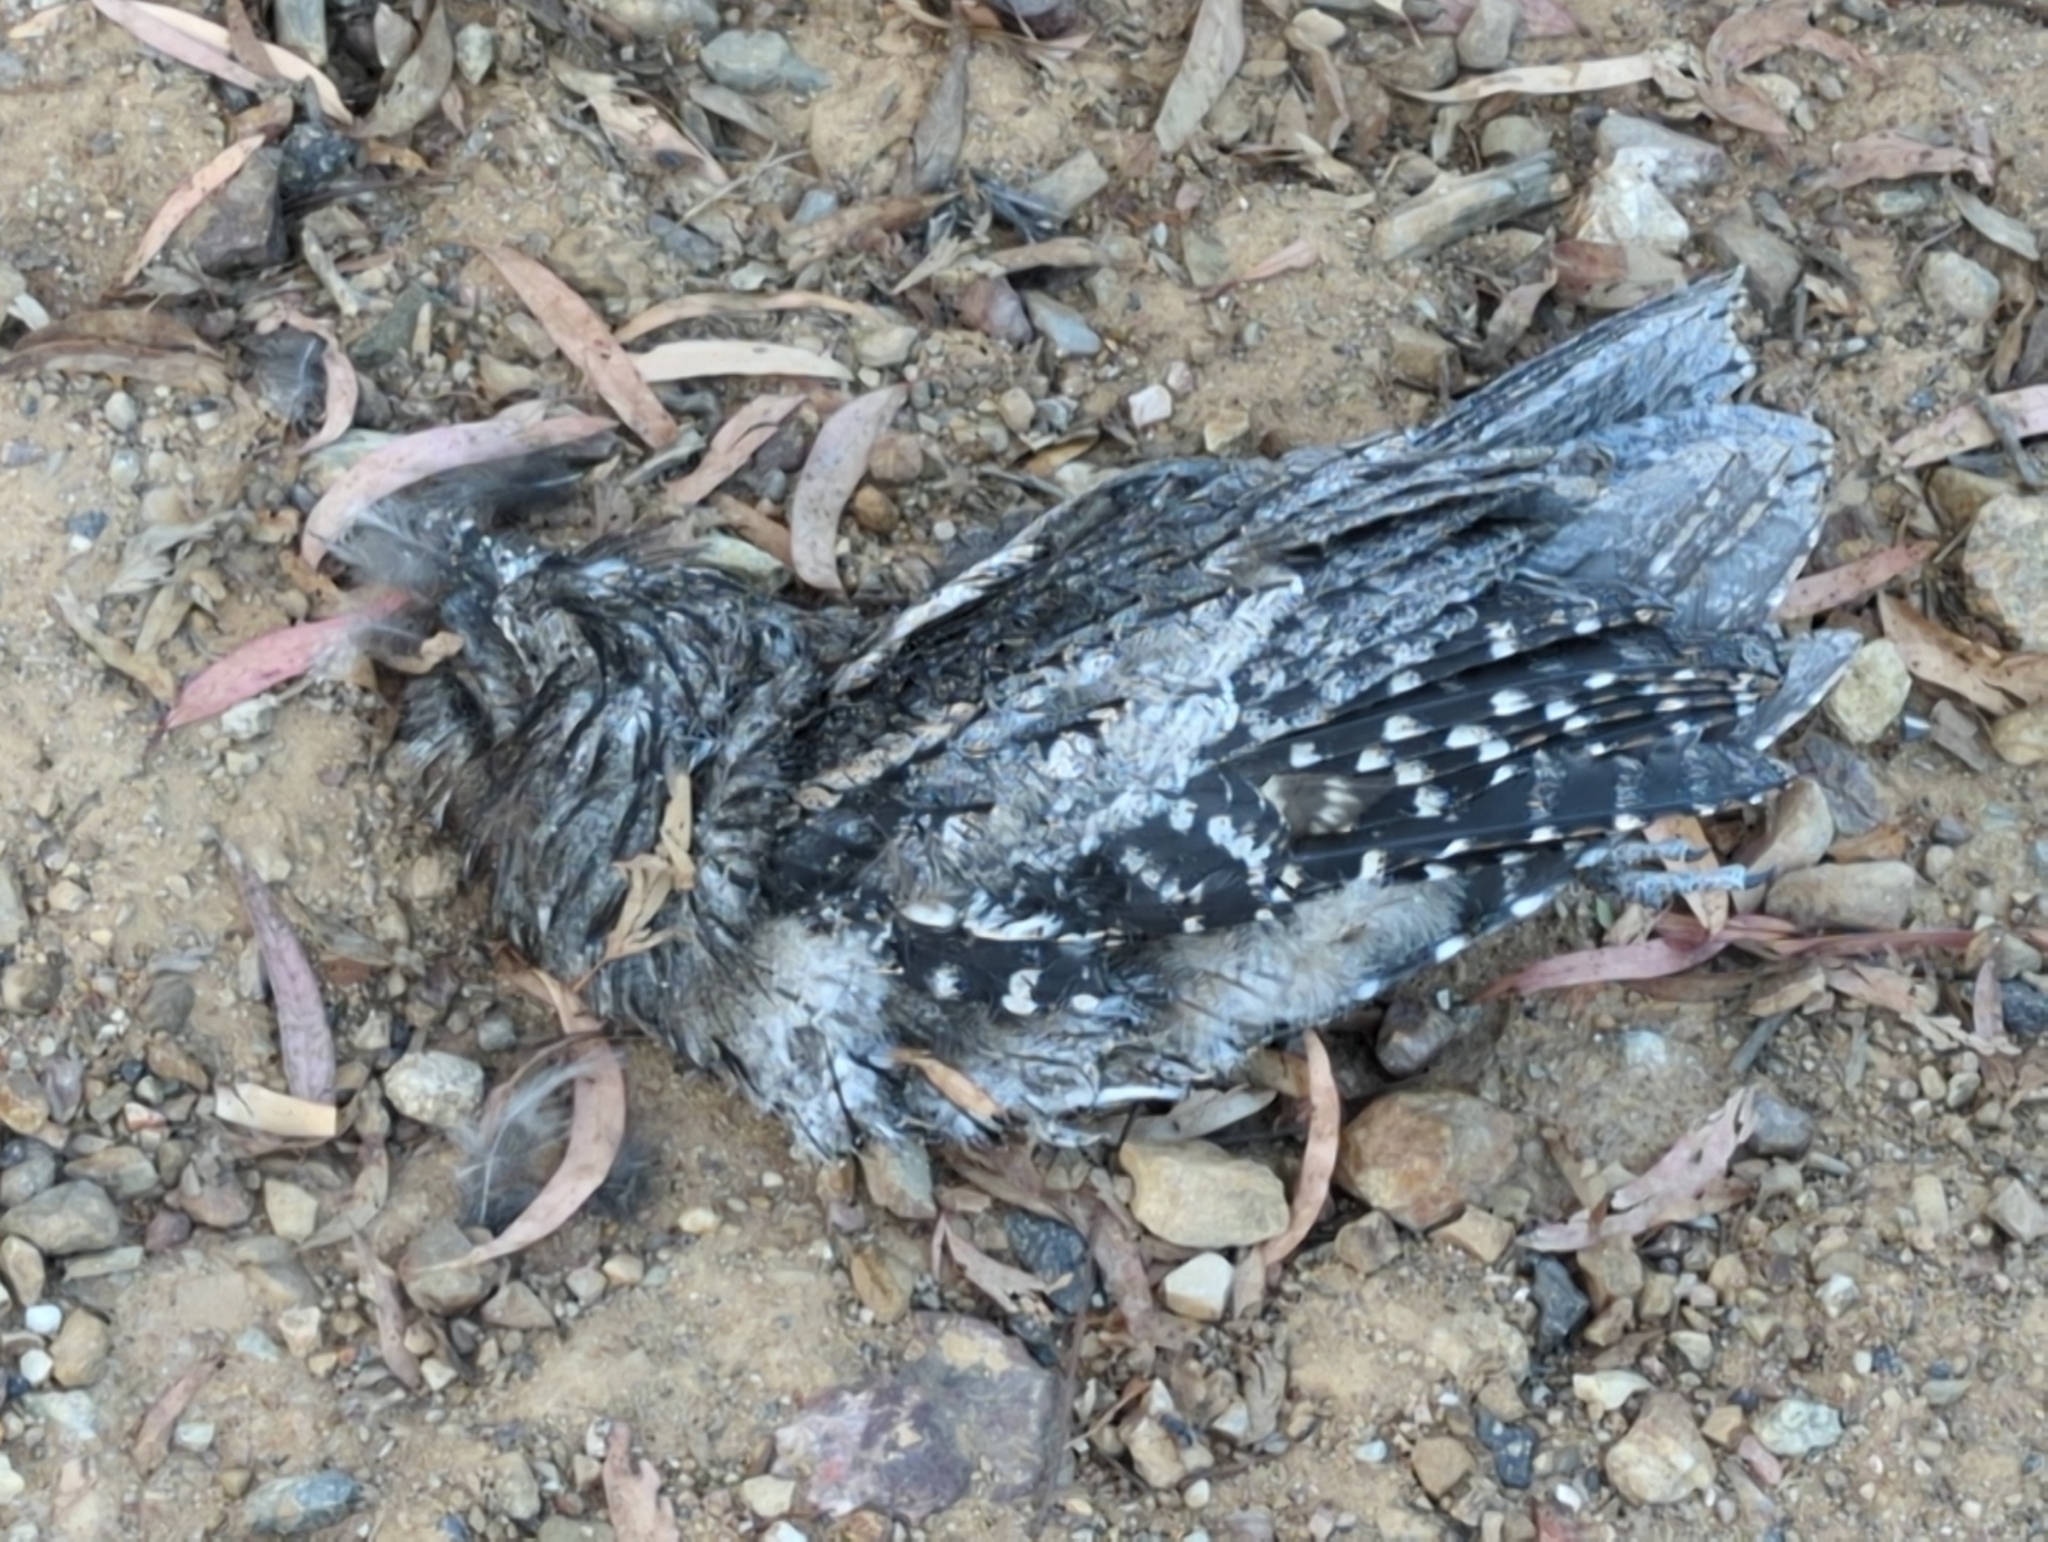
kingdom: Animalia
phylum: Chordata
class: Aves
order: Caprimulgiformes
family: Podargidae
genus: Podargus
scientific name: Podargus strigoides
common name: Tawny frogmouth
